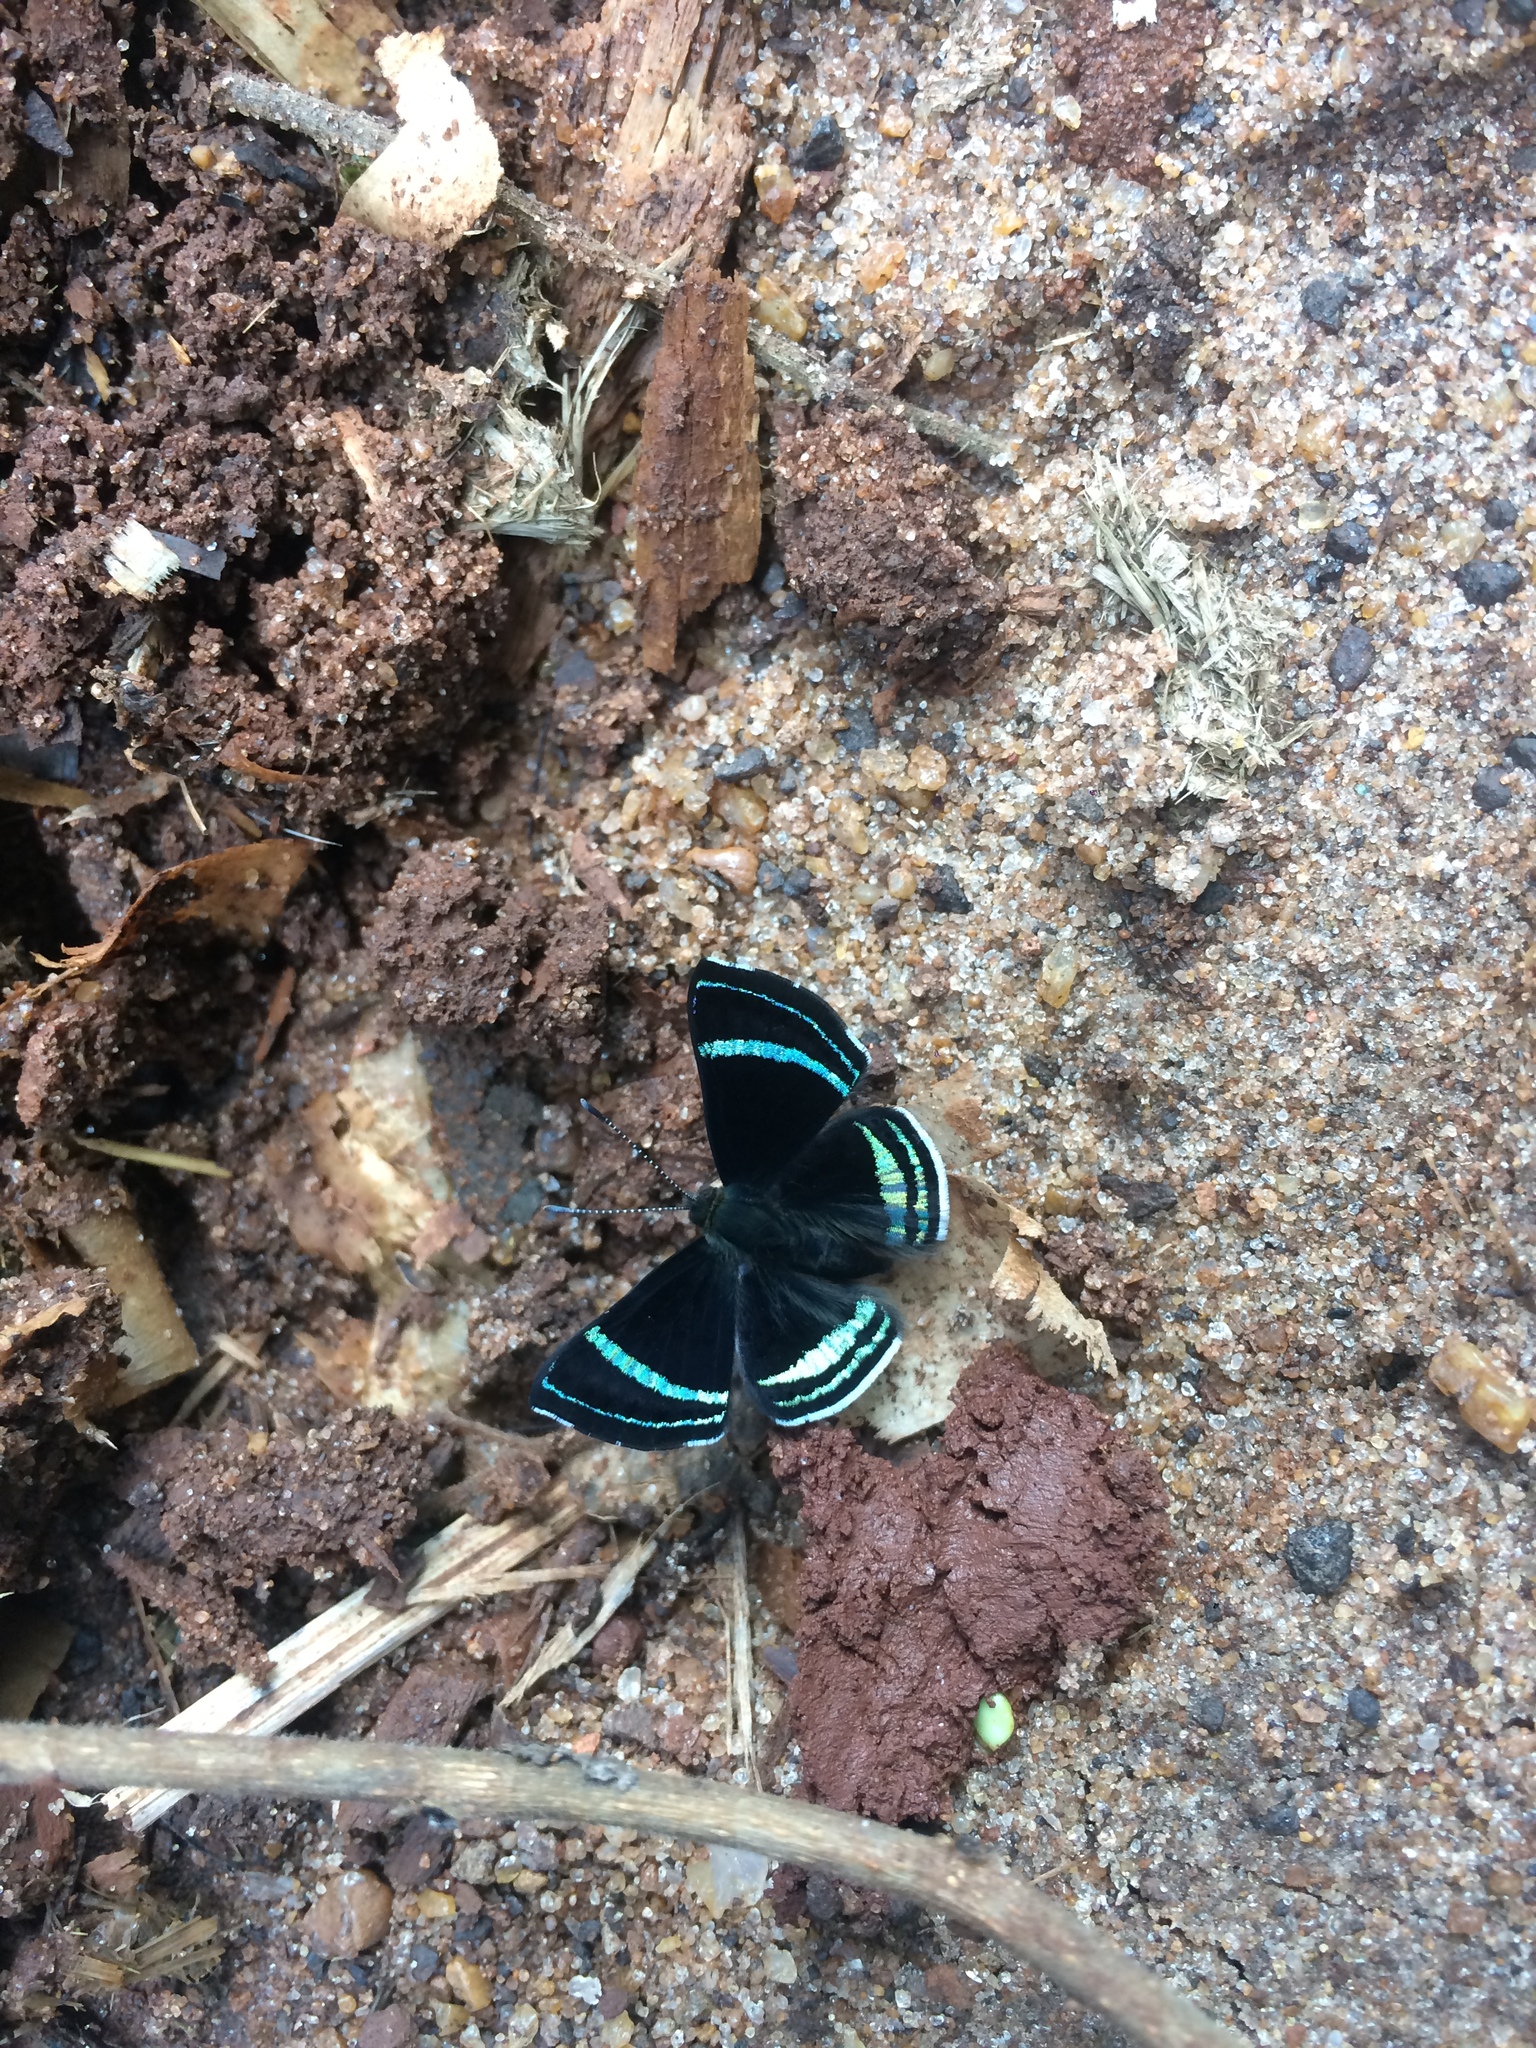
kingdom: Animalia
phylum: Arthropoda
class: Insecta
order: Lepidoptera
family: Riodinidae
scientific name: Riodinidae
